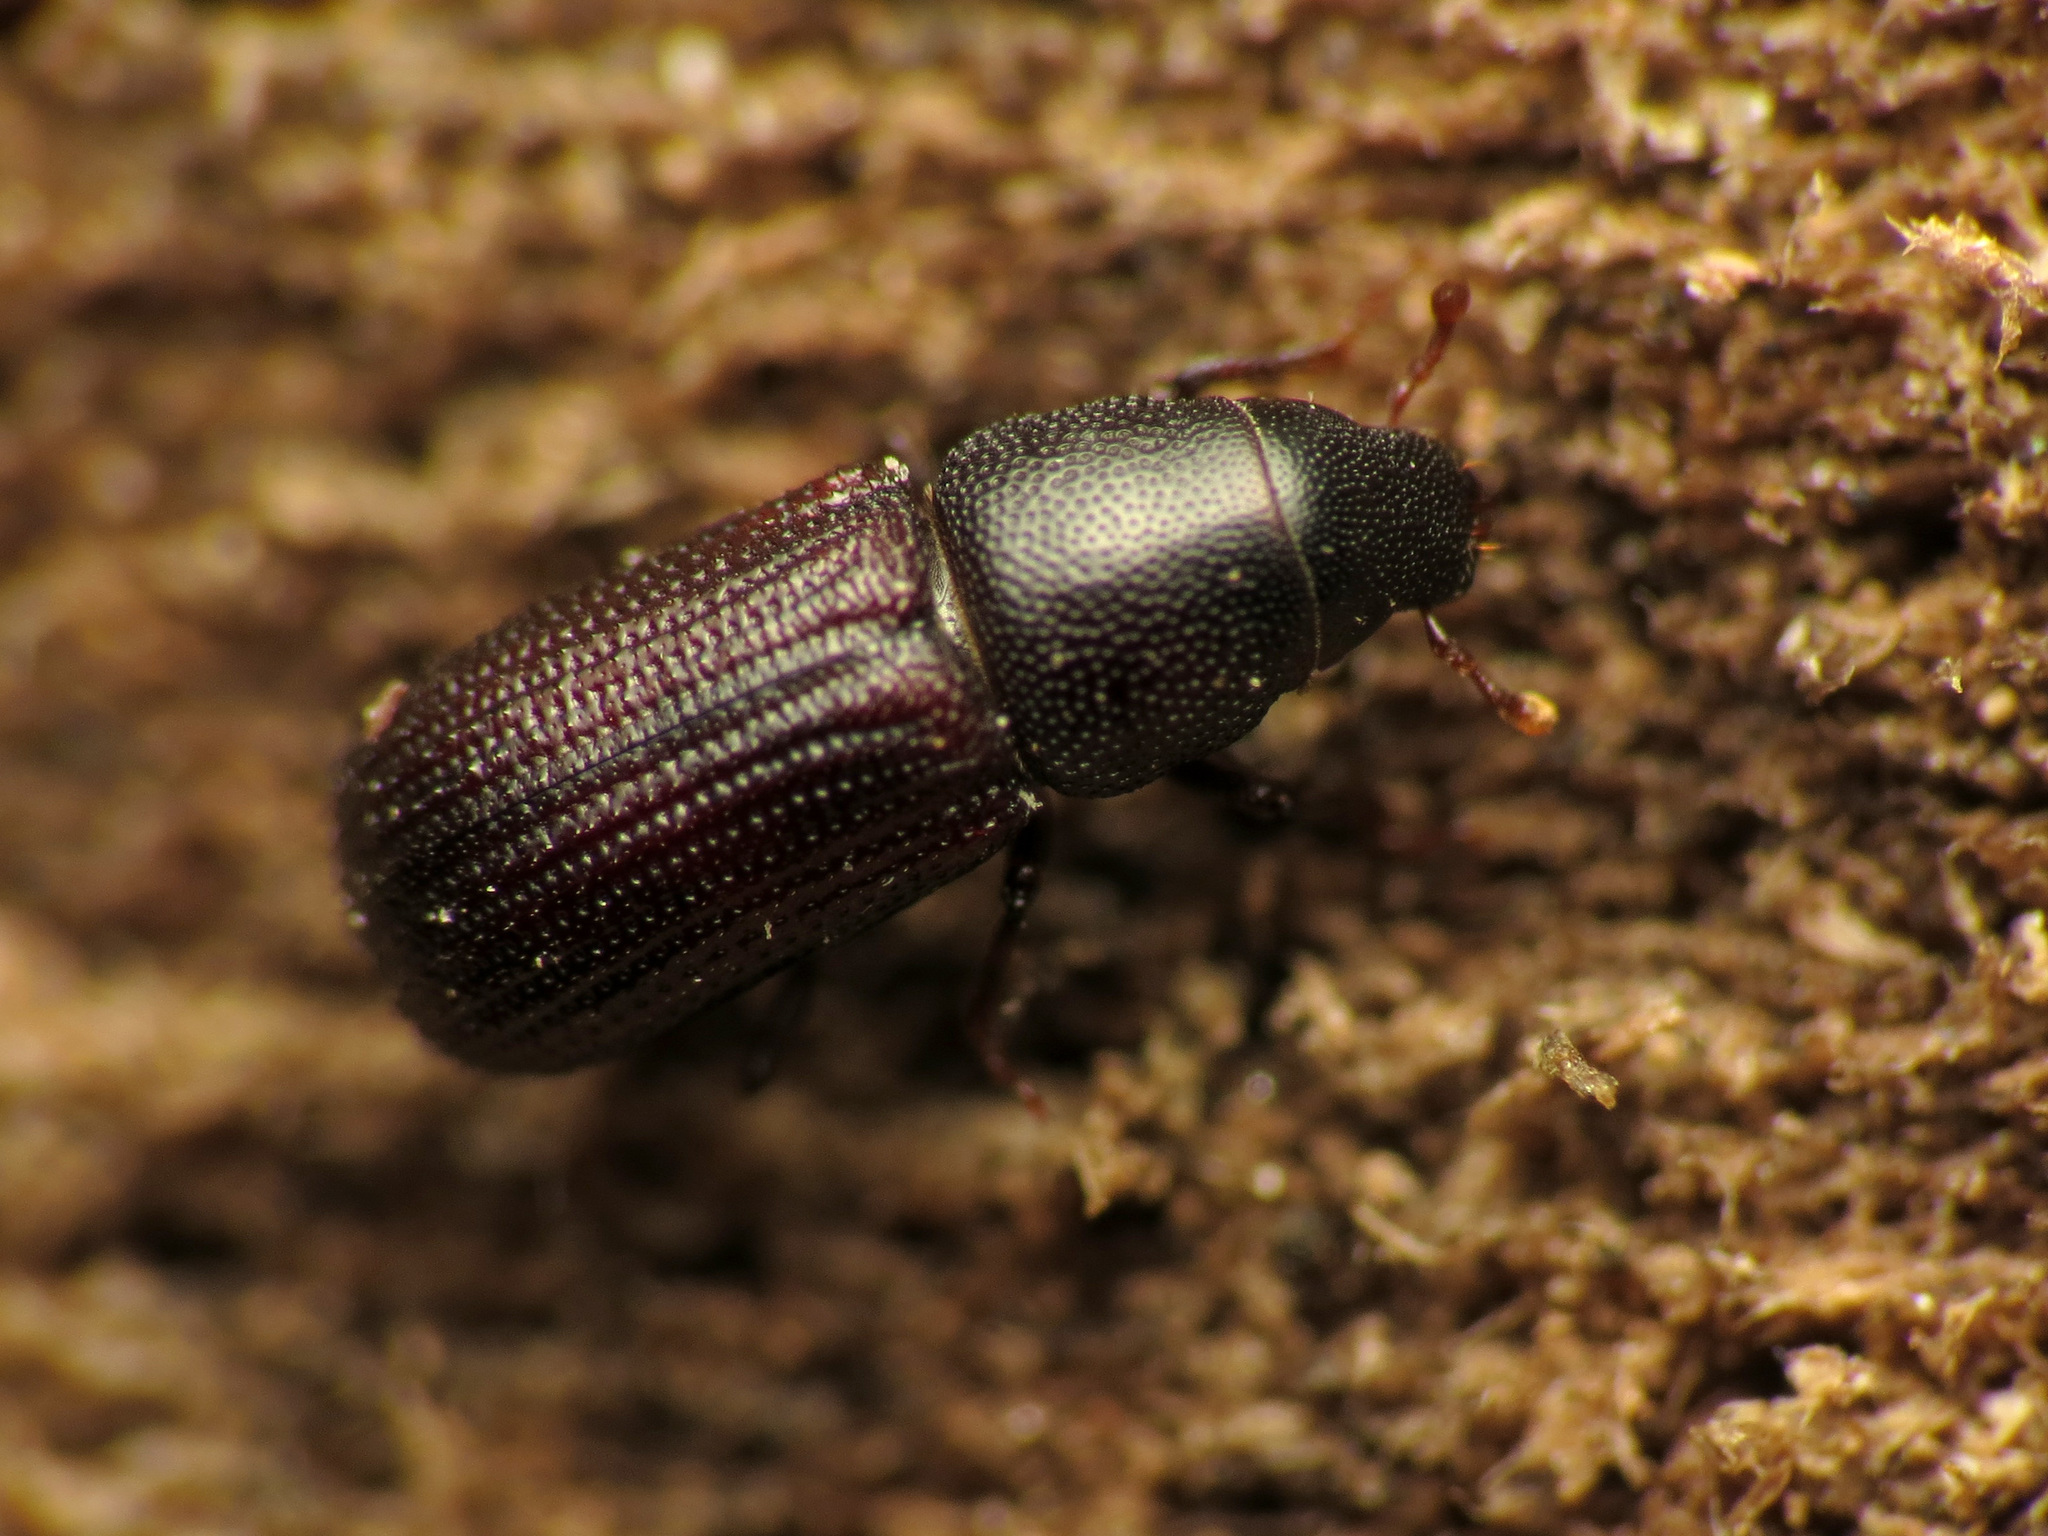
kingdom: Animalia
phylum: Arthropoda
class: Insecta
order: Coleoptera
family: Curculionidae
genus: Stenoscelis
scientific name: Stenoscelis brevis
